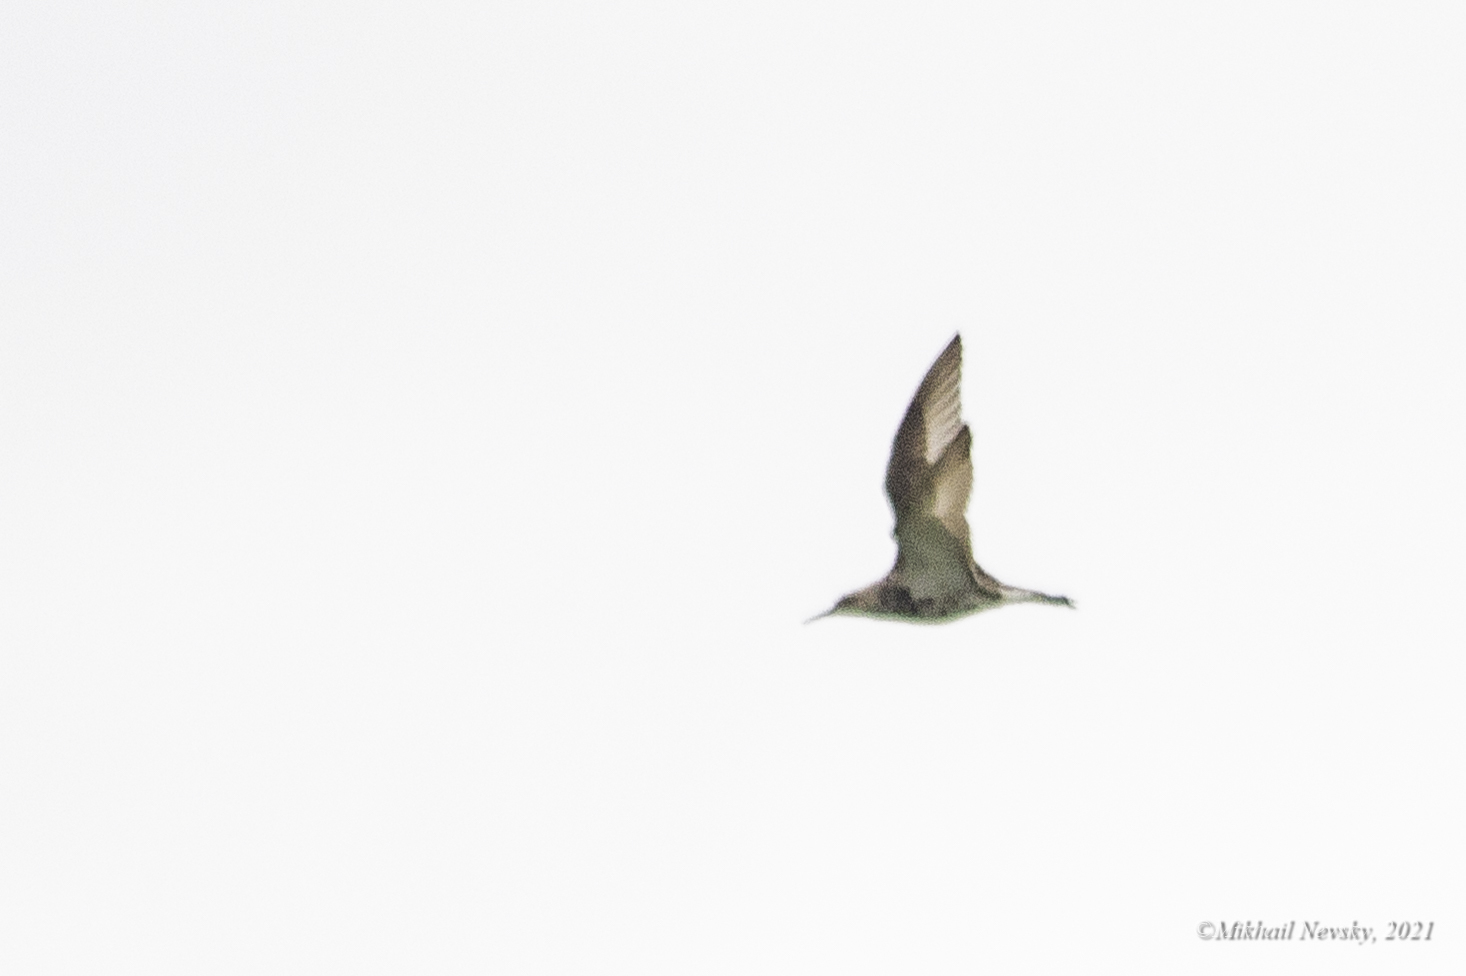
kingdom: Animalia
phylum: Chordata
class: Aves
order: Charadriiformes
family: Scolopacidae
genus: Calidris
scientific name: Calidris pugnax
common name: Ruff
